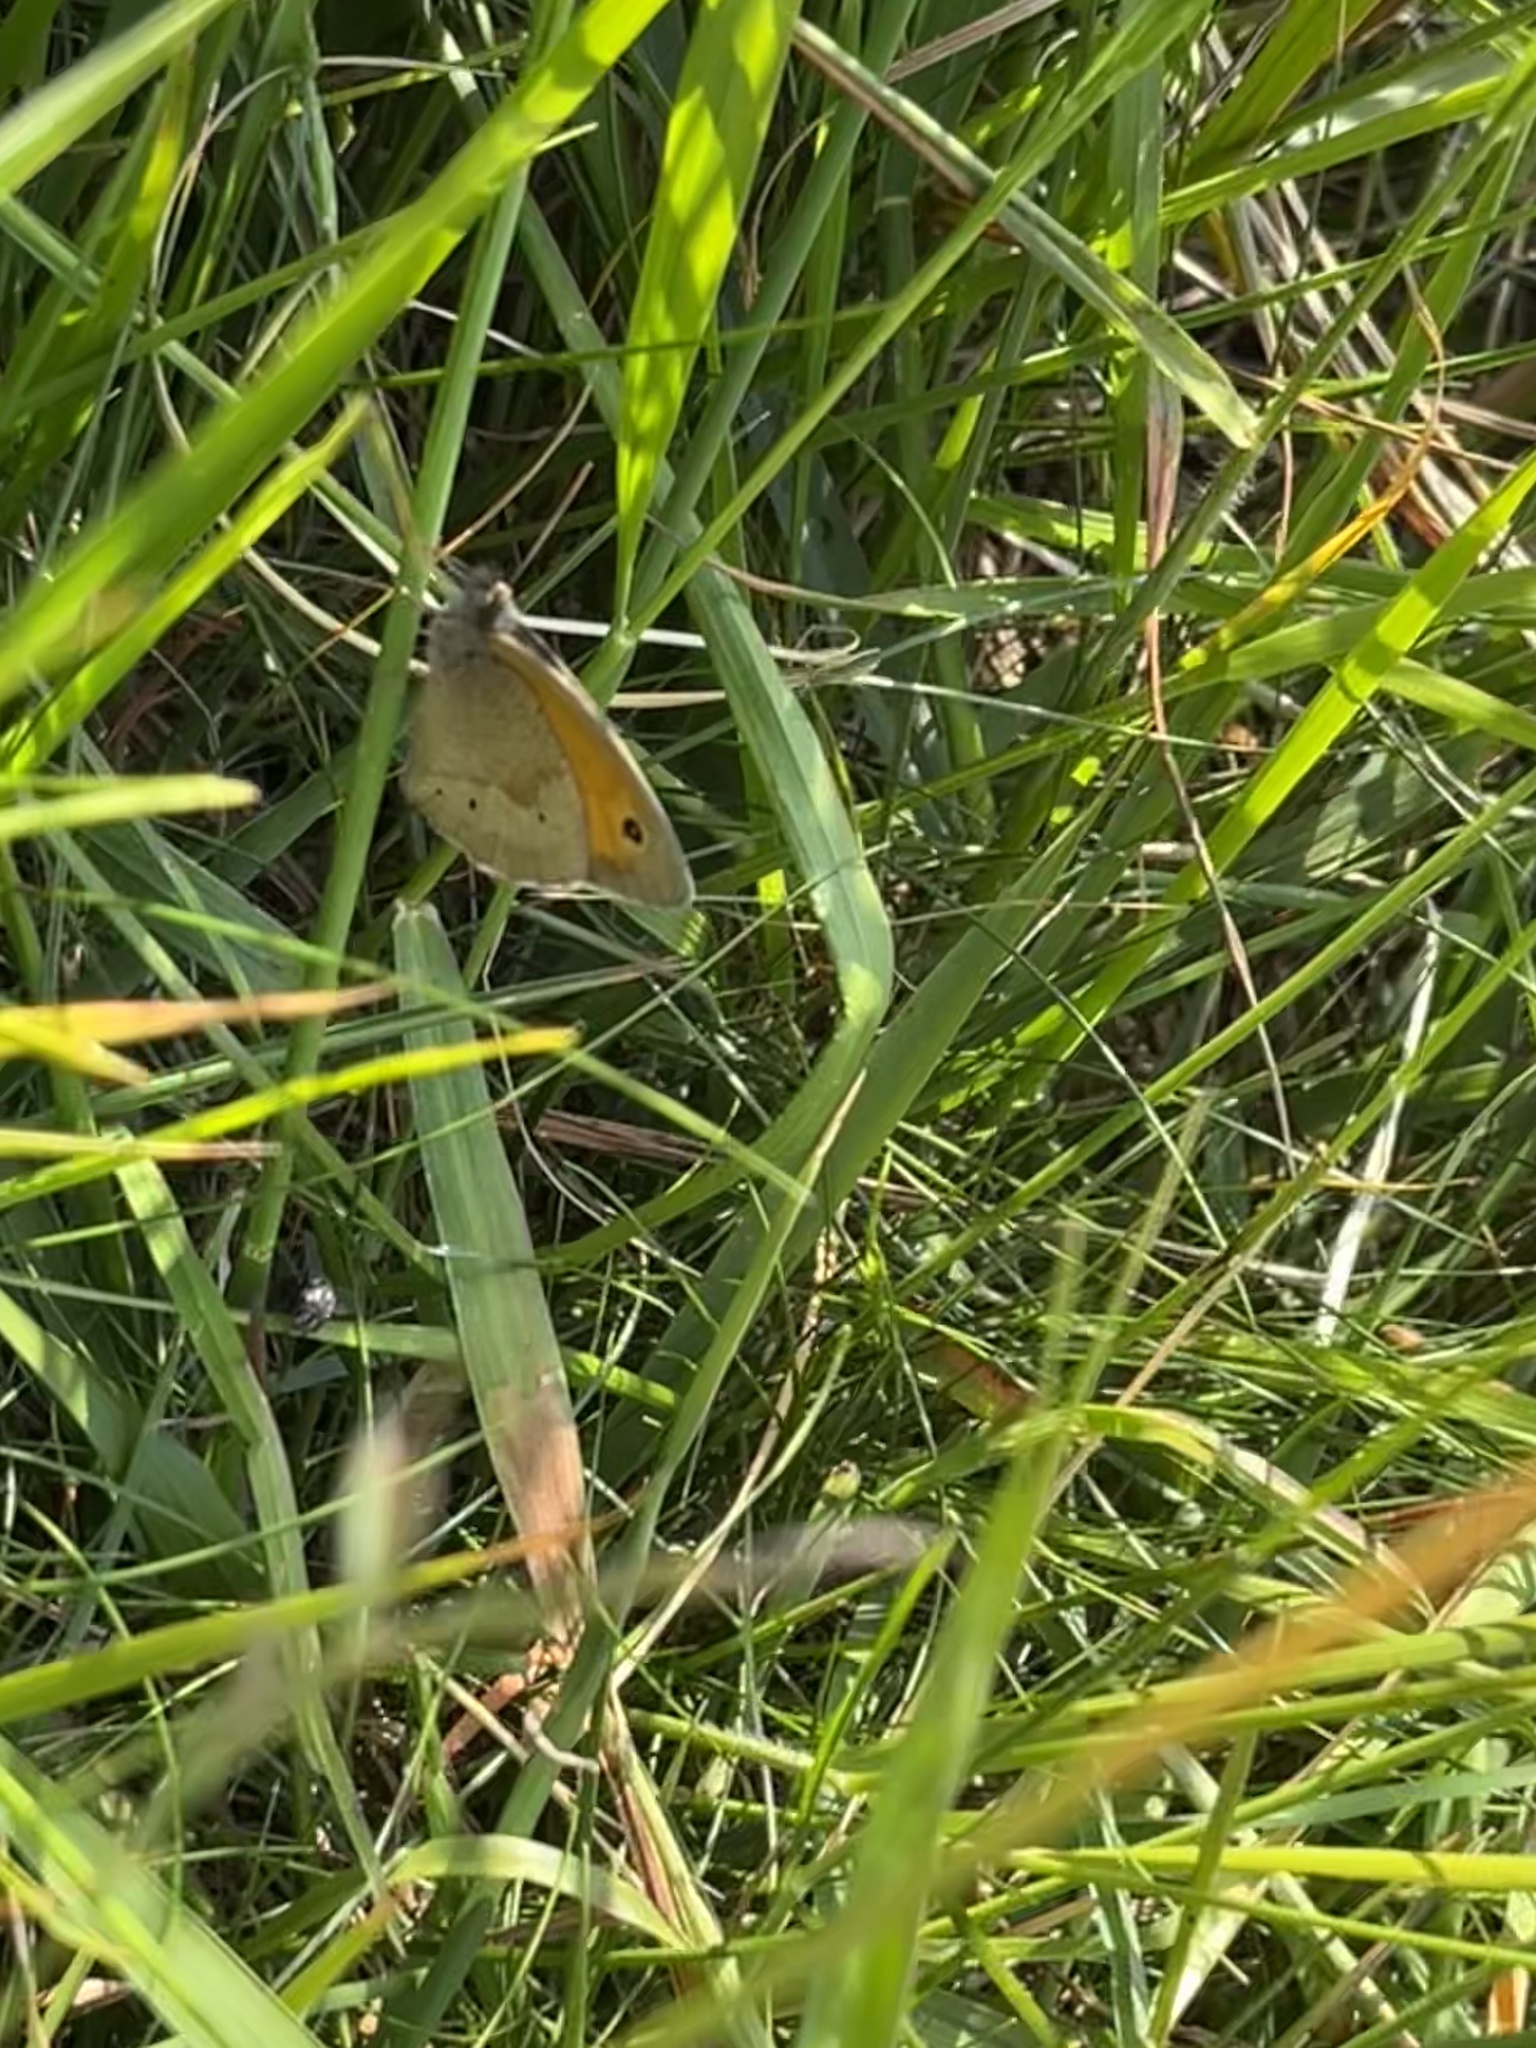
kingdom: Animalia
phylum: Arthropoda
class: Insecta
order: Lepidoptera
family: Nymphalidae
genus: Maniola
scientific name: Maniola jurtina
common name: Meadow brown
